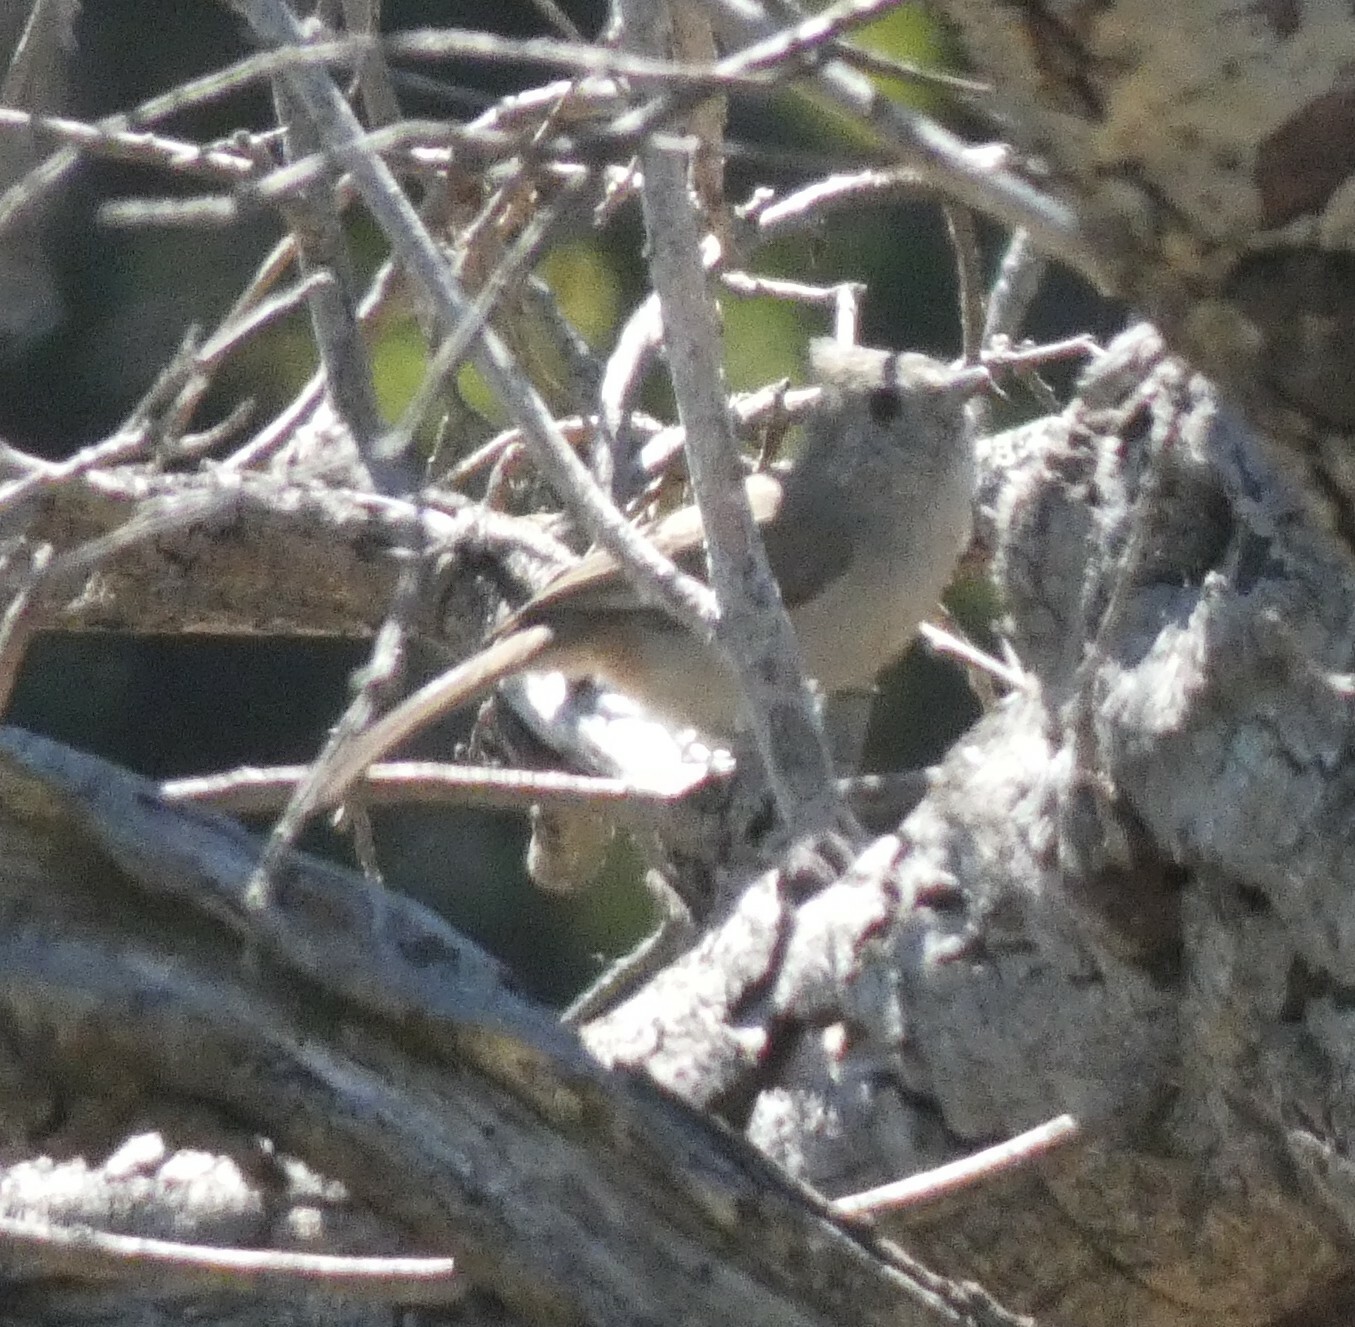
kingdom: Animalia
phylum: Chordata
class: Aves
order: Passeriformes
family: Paridae
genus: Baeolophus
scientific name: Baeolophus inornatus
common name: Oak titmouse
